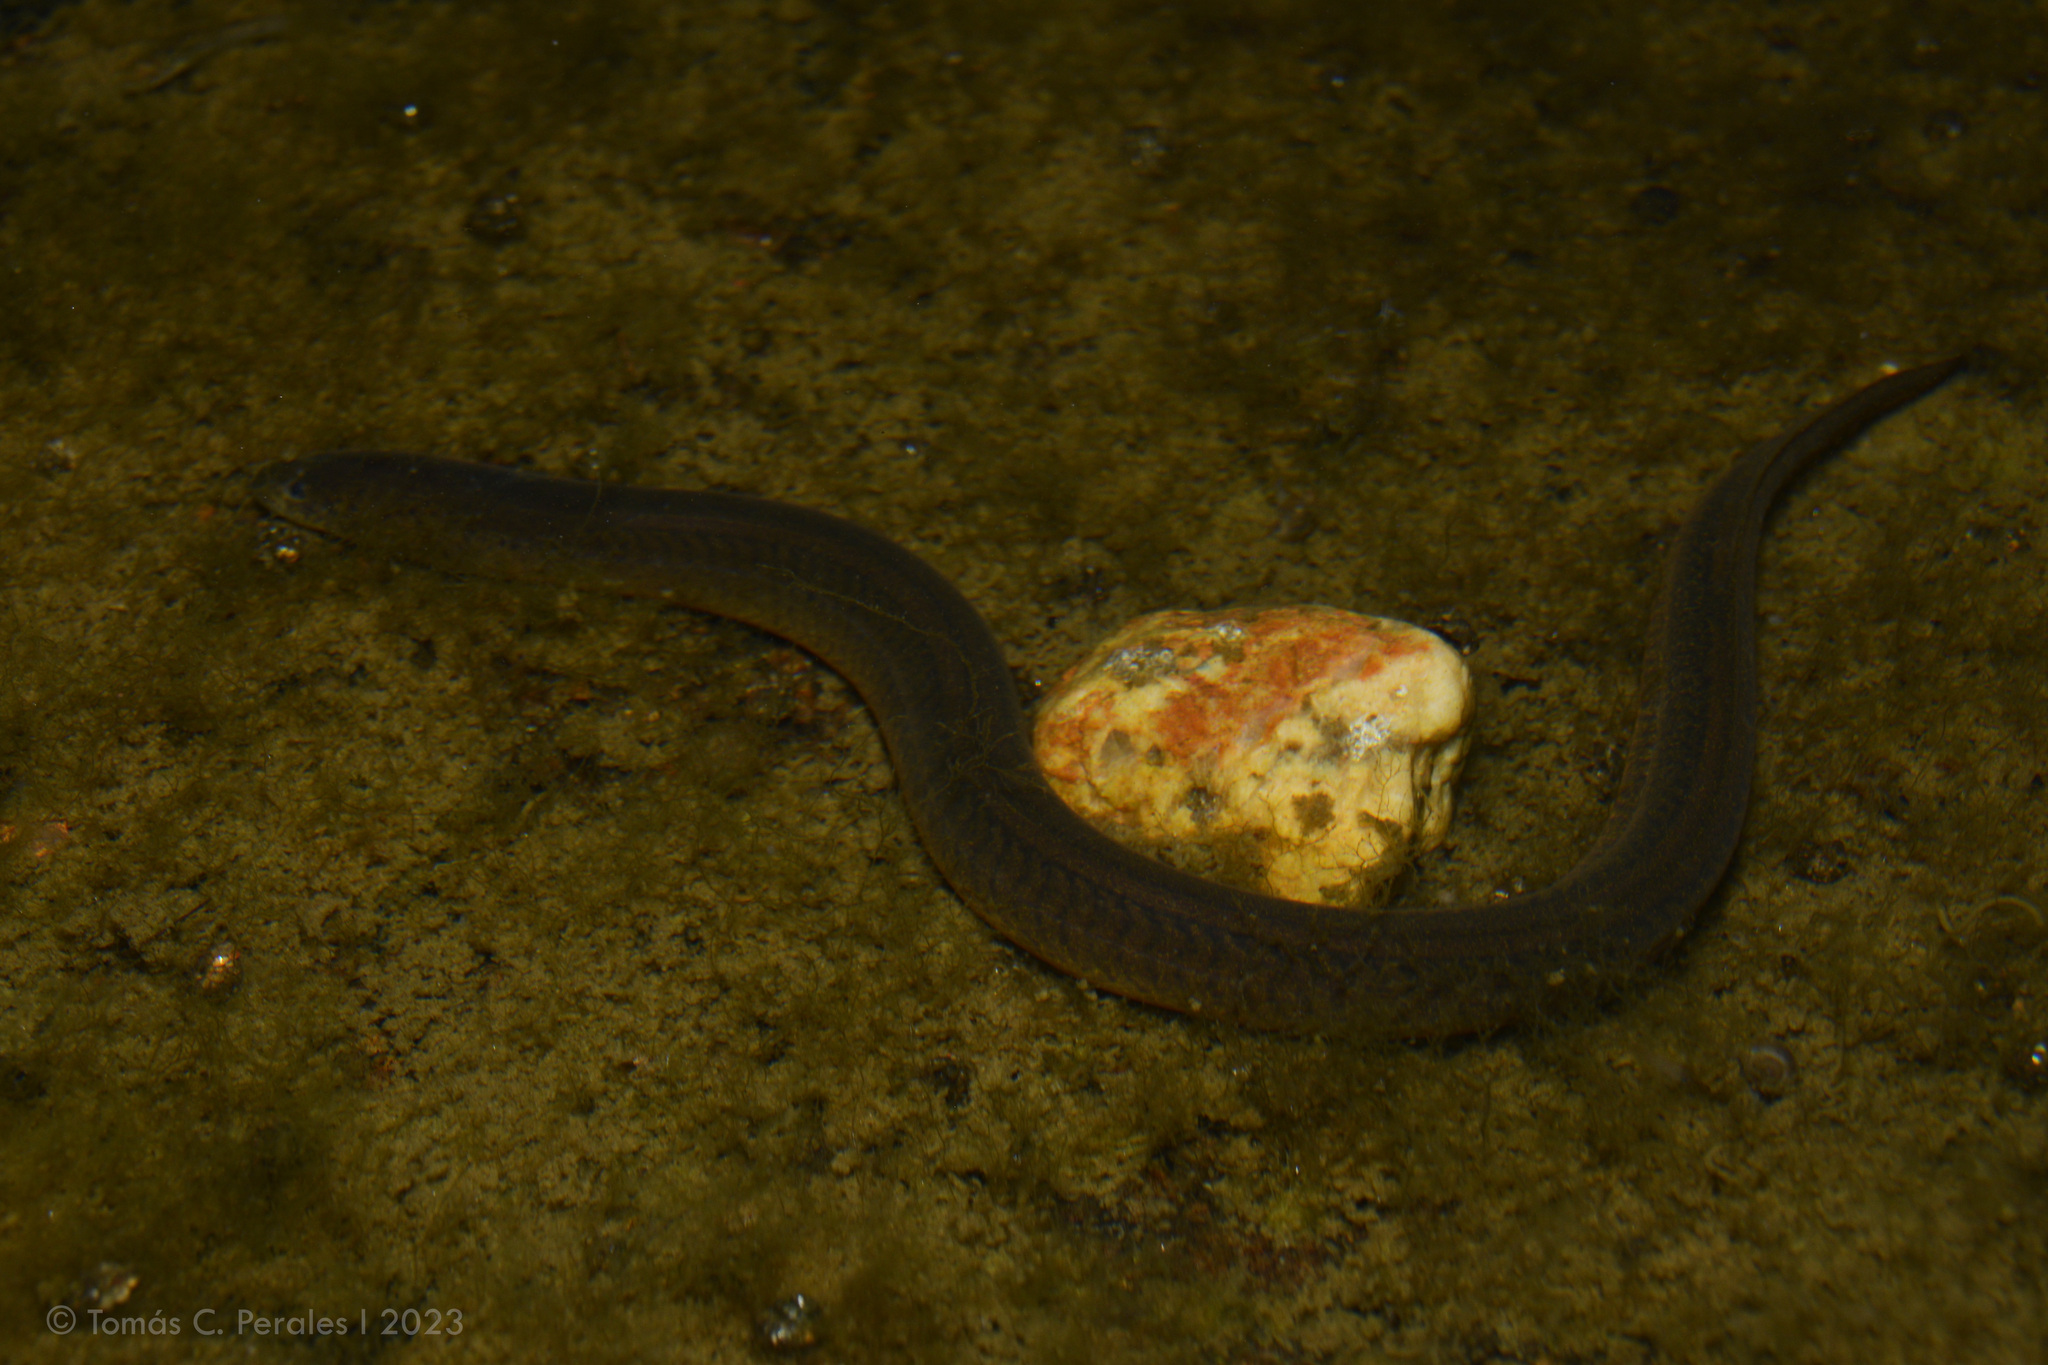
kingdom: Animalia
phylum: Chordata
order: Synbranchiformes
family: Synbranchidae
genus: Synbranchus
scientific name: Synbranchus marmoratus
